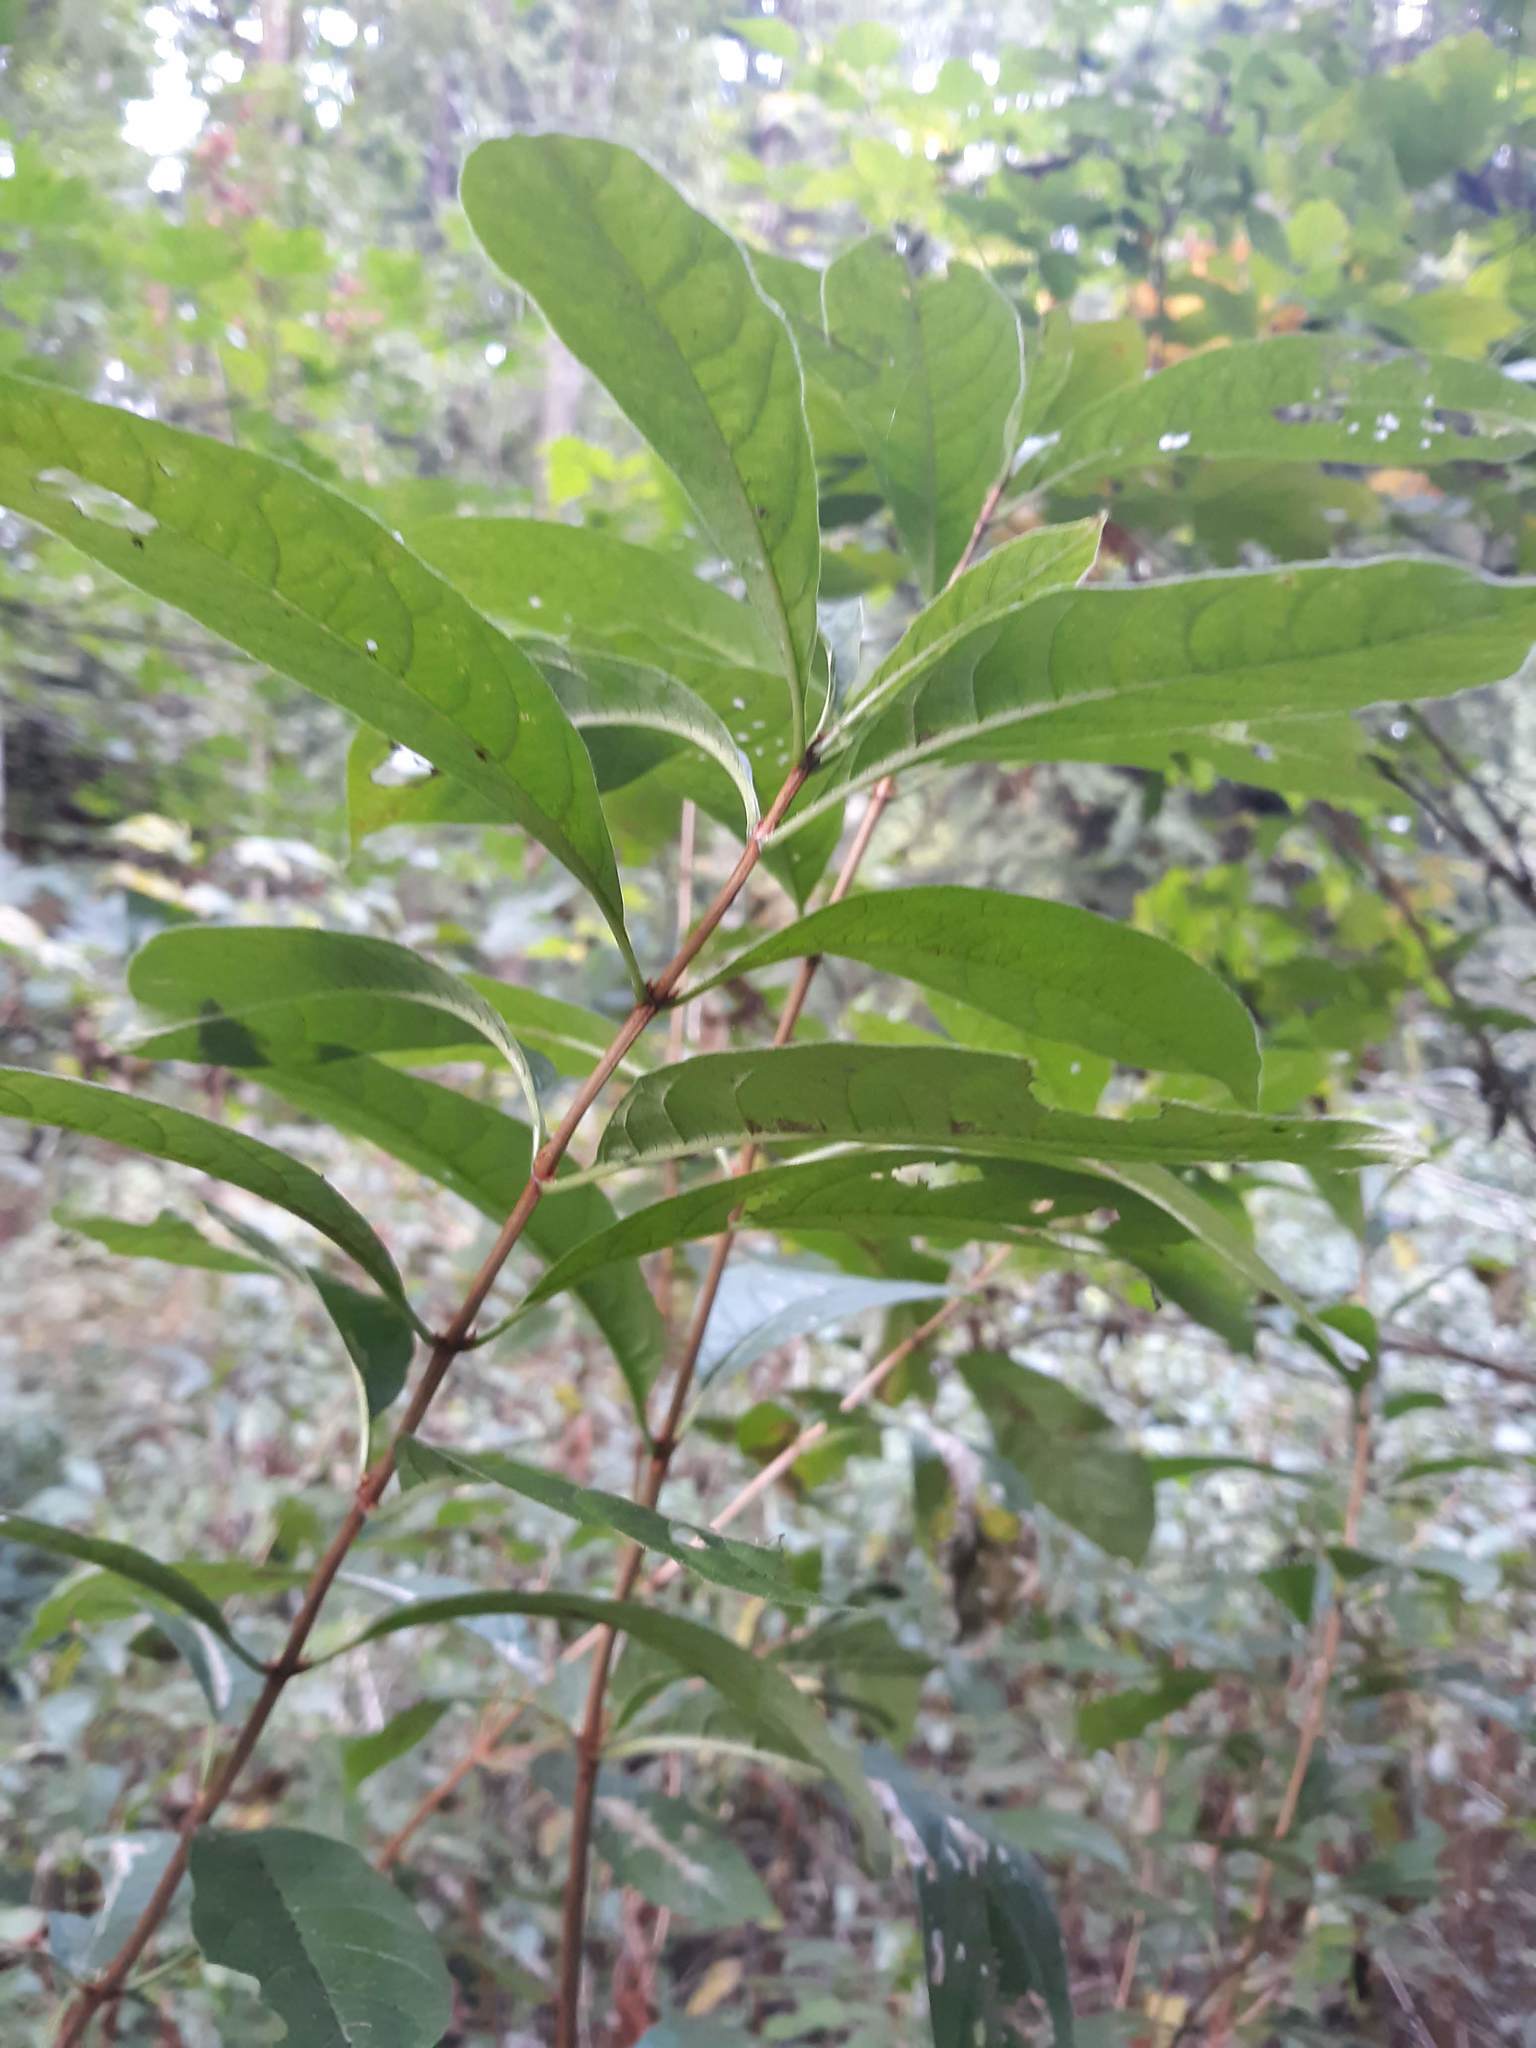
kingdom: Plantae
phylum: Tracheophyta
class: Magnoliopsida
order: Dipsacales
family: Caprifoliaceae
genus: Lonicera
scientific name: Lonicera involucrata
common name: Californian honeysuckle
